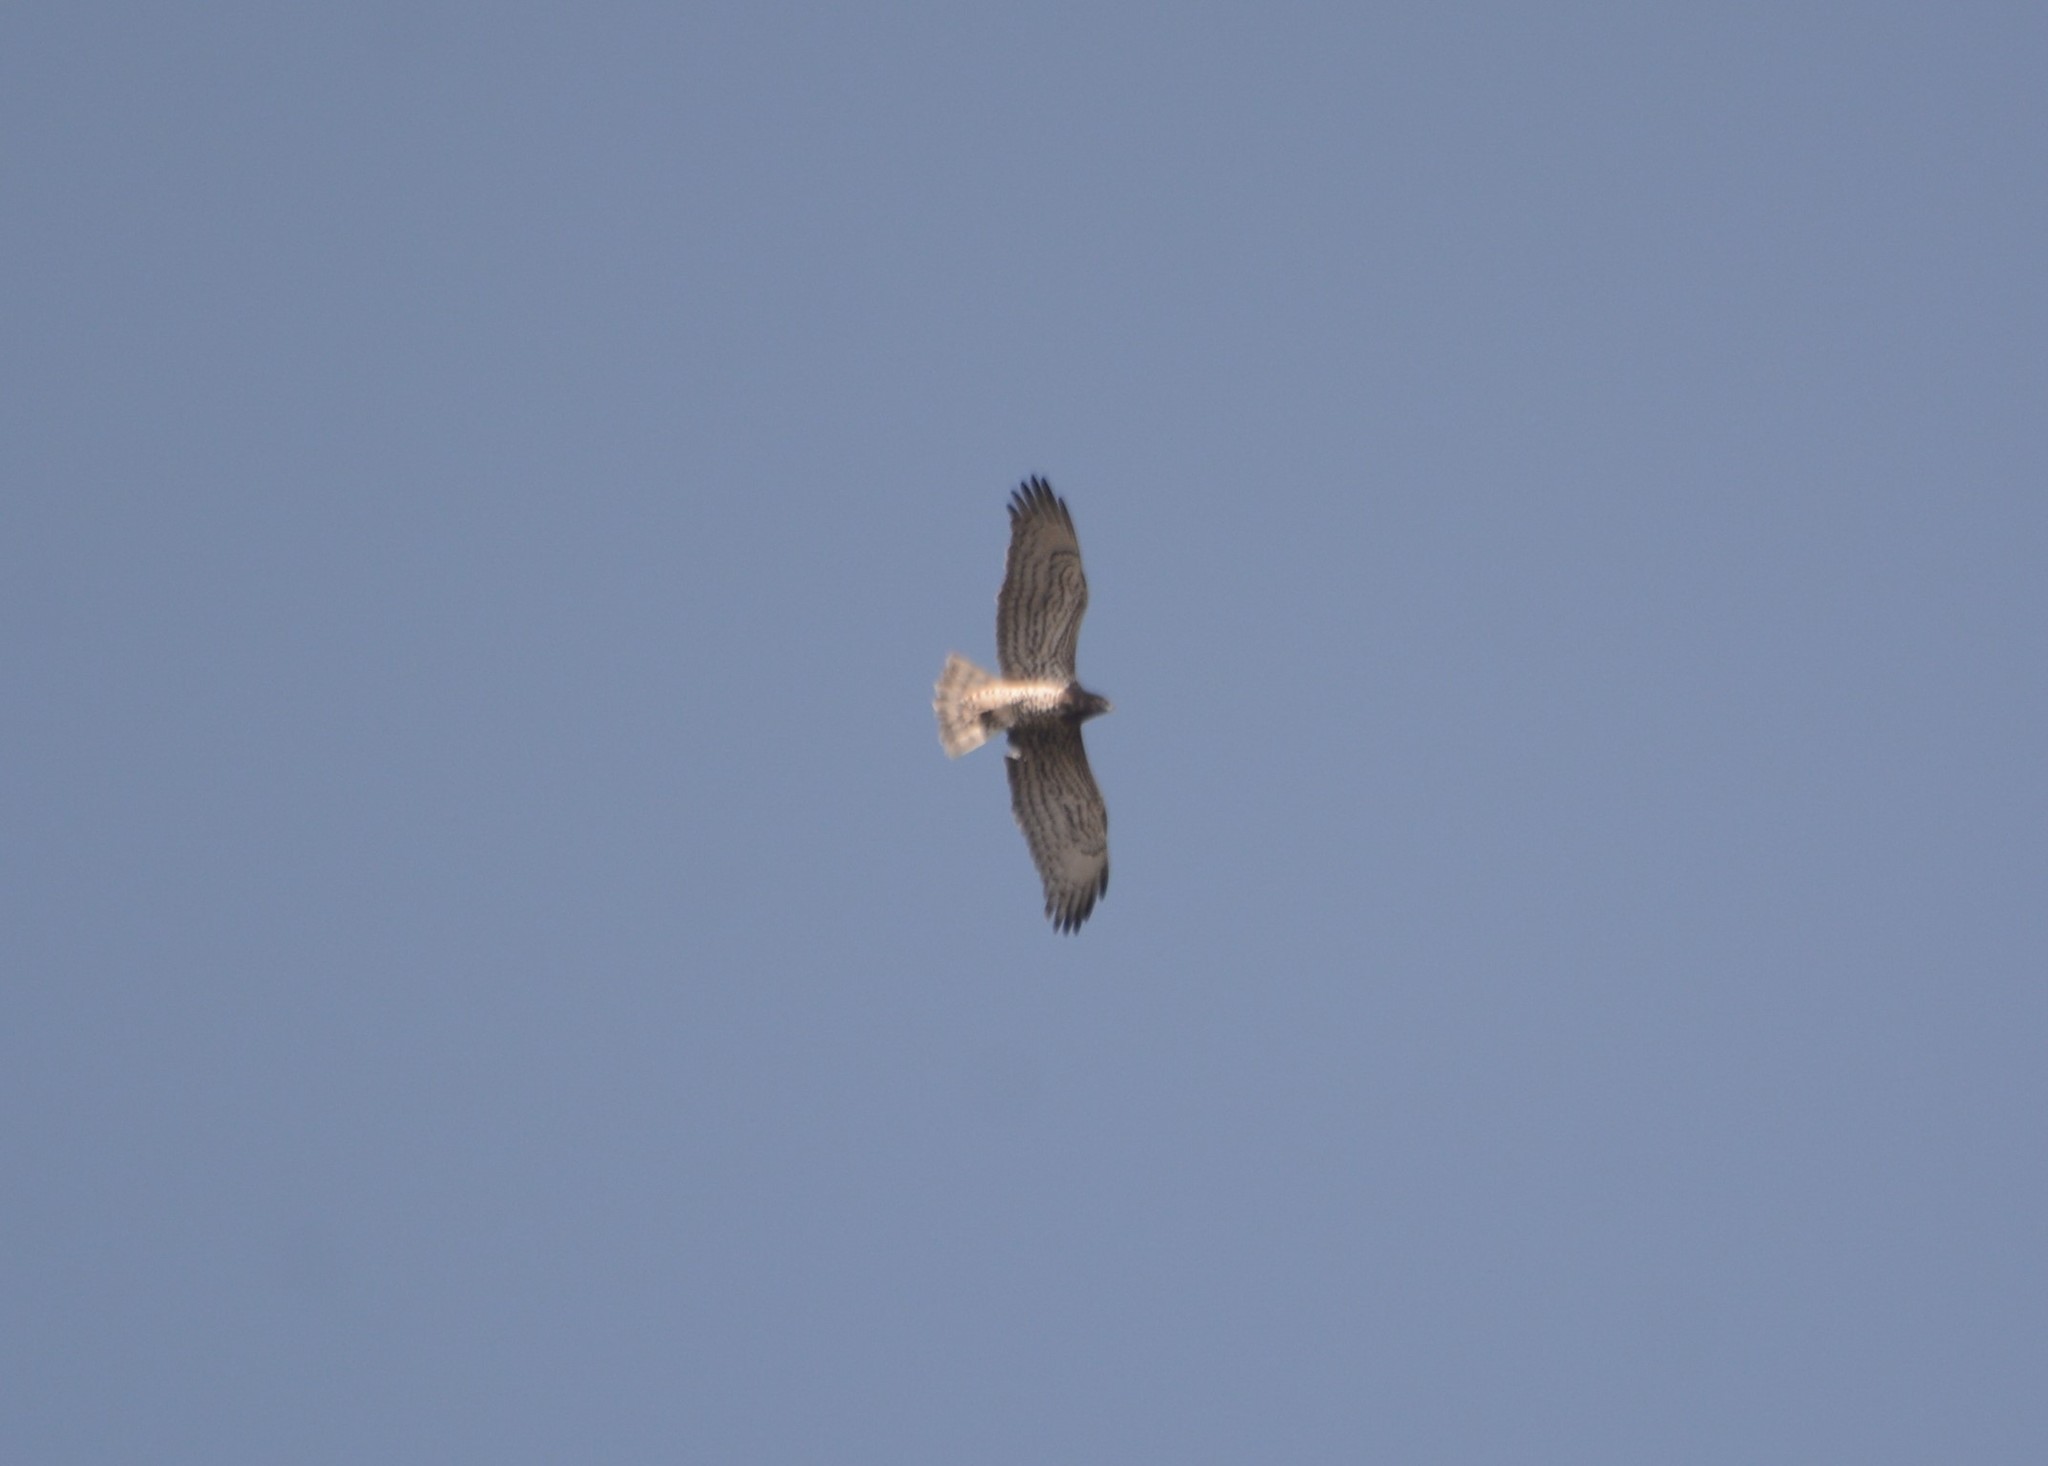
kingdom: Animalia
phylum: Chordata
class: Aves
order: Accipitriformes
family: Accipitridae
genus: Circaetus
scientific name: Circaetus gallicus
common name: Short-toed snake eagle
